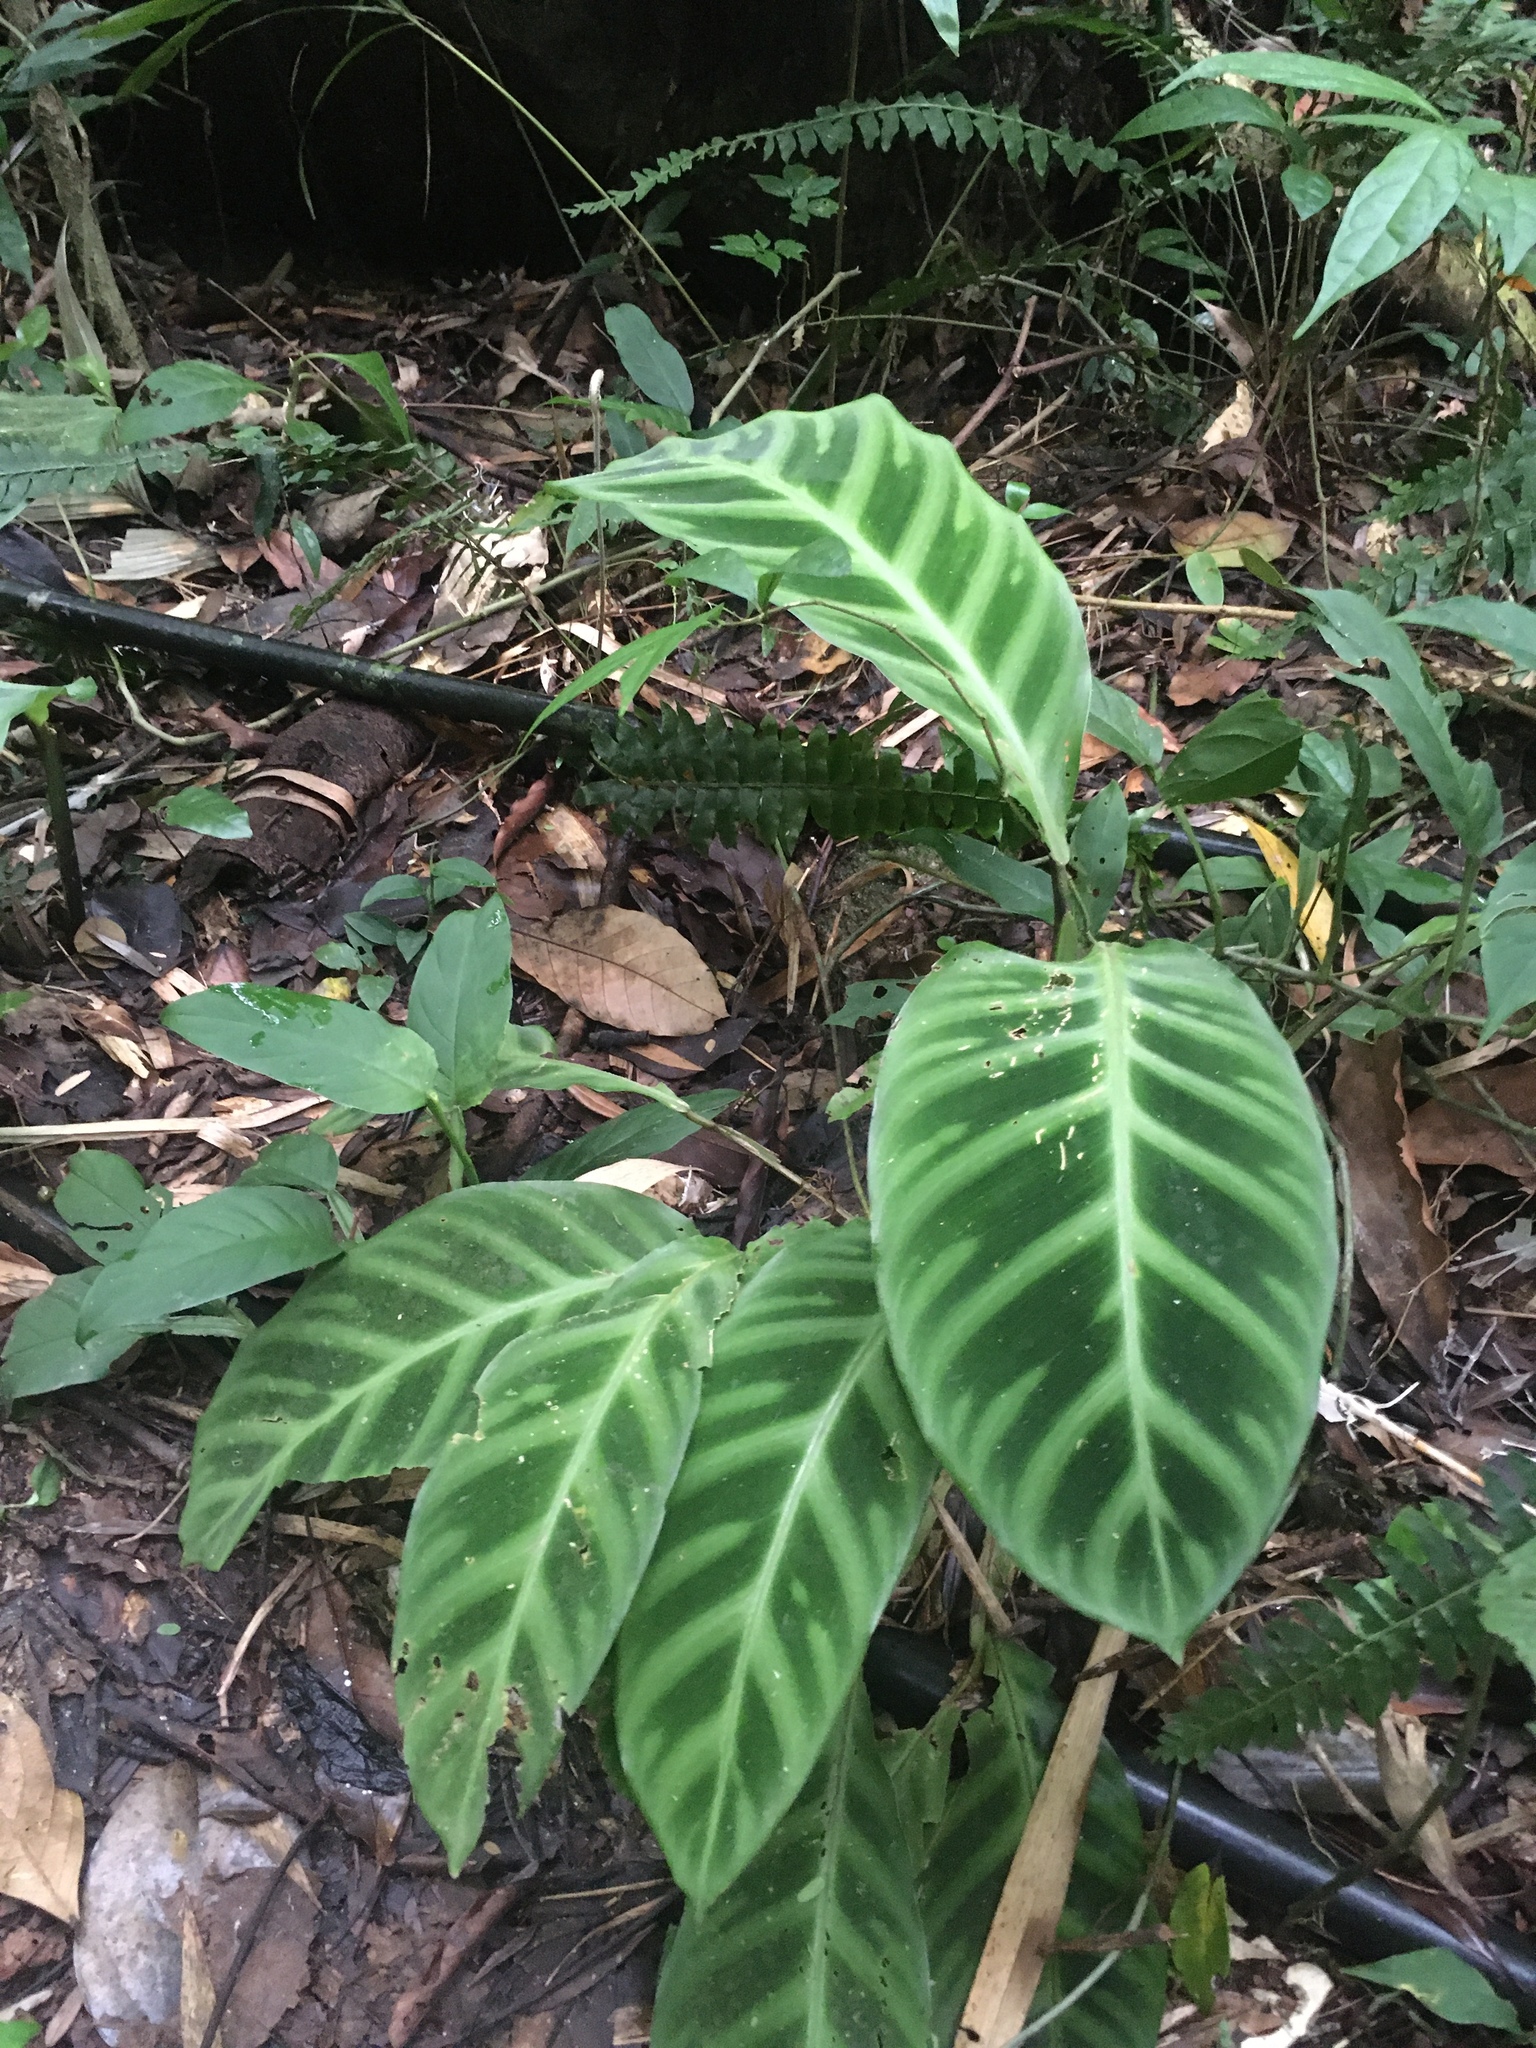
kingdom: Plantae
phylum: Tracheophyta
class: Liliopsida
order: Zingiberales
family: Marantaceae
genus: Goeppertia
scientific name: Goeppertia zebrina
